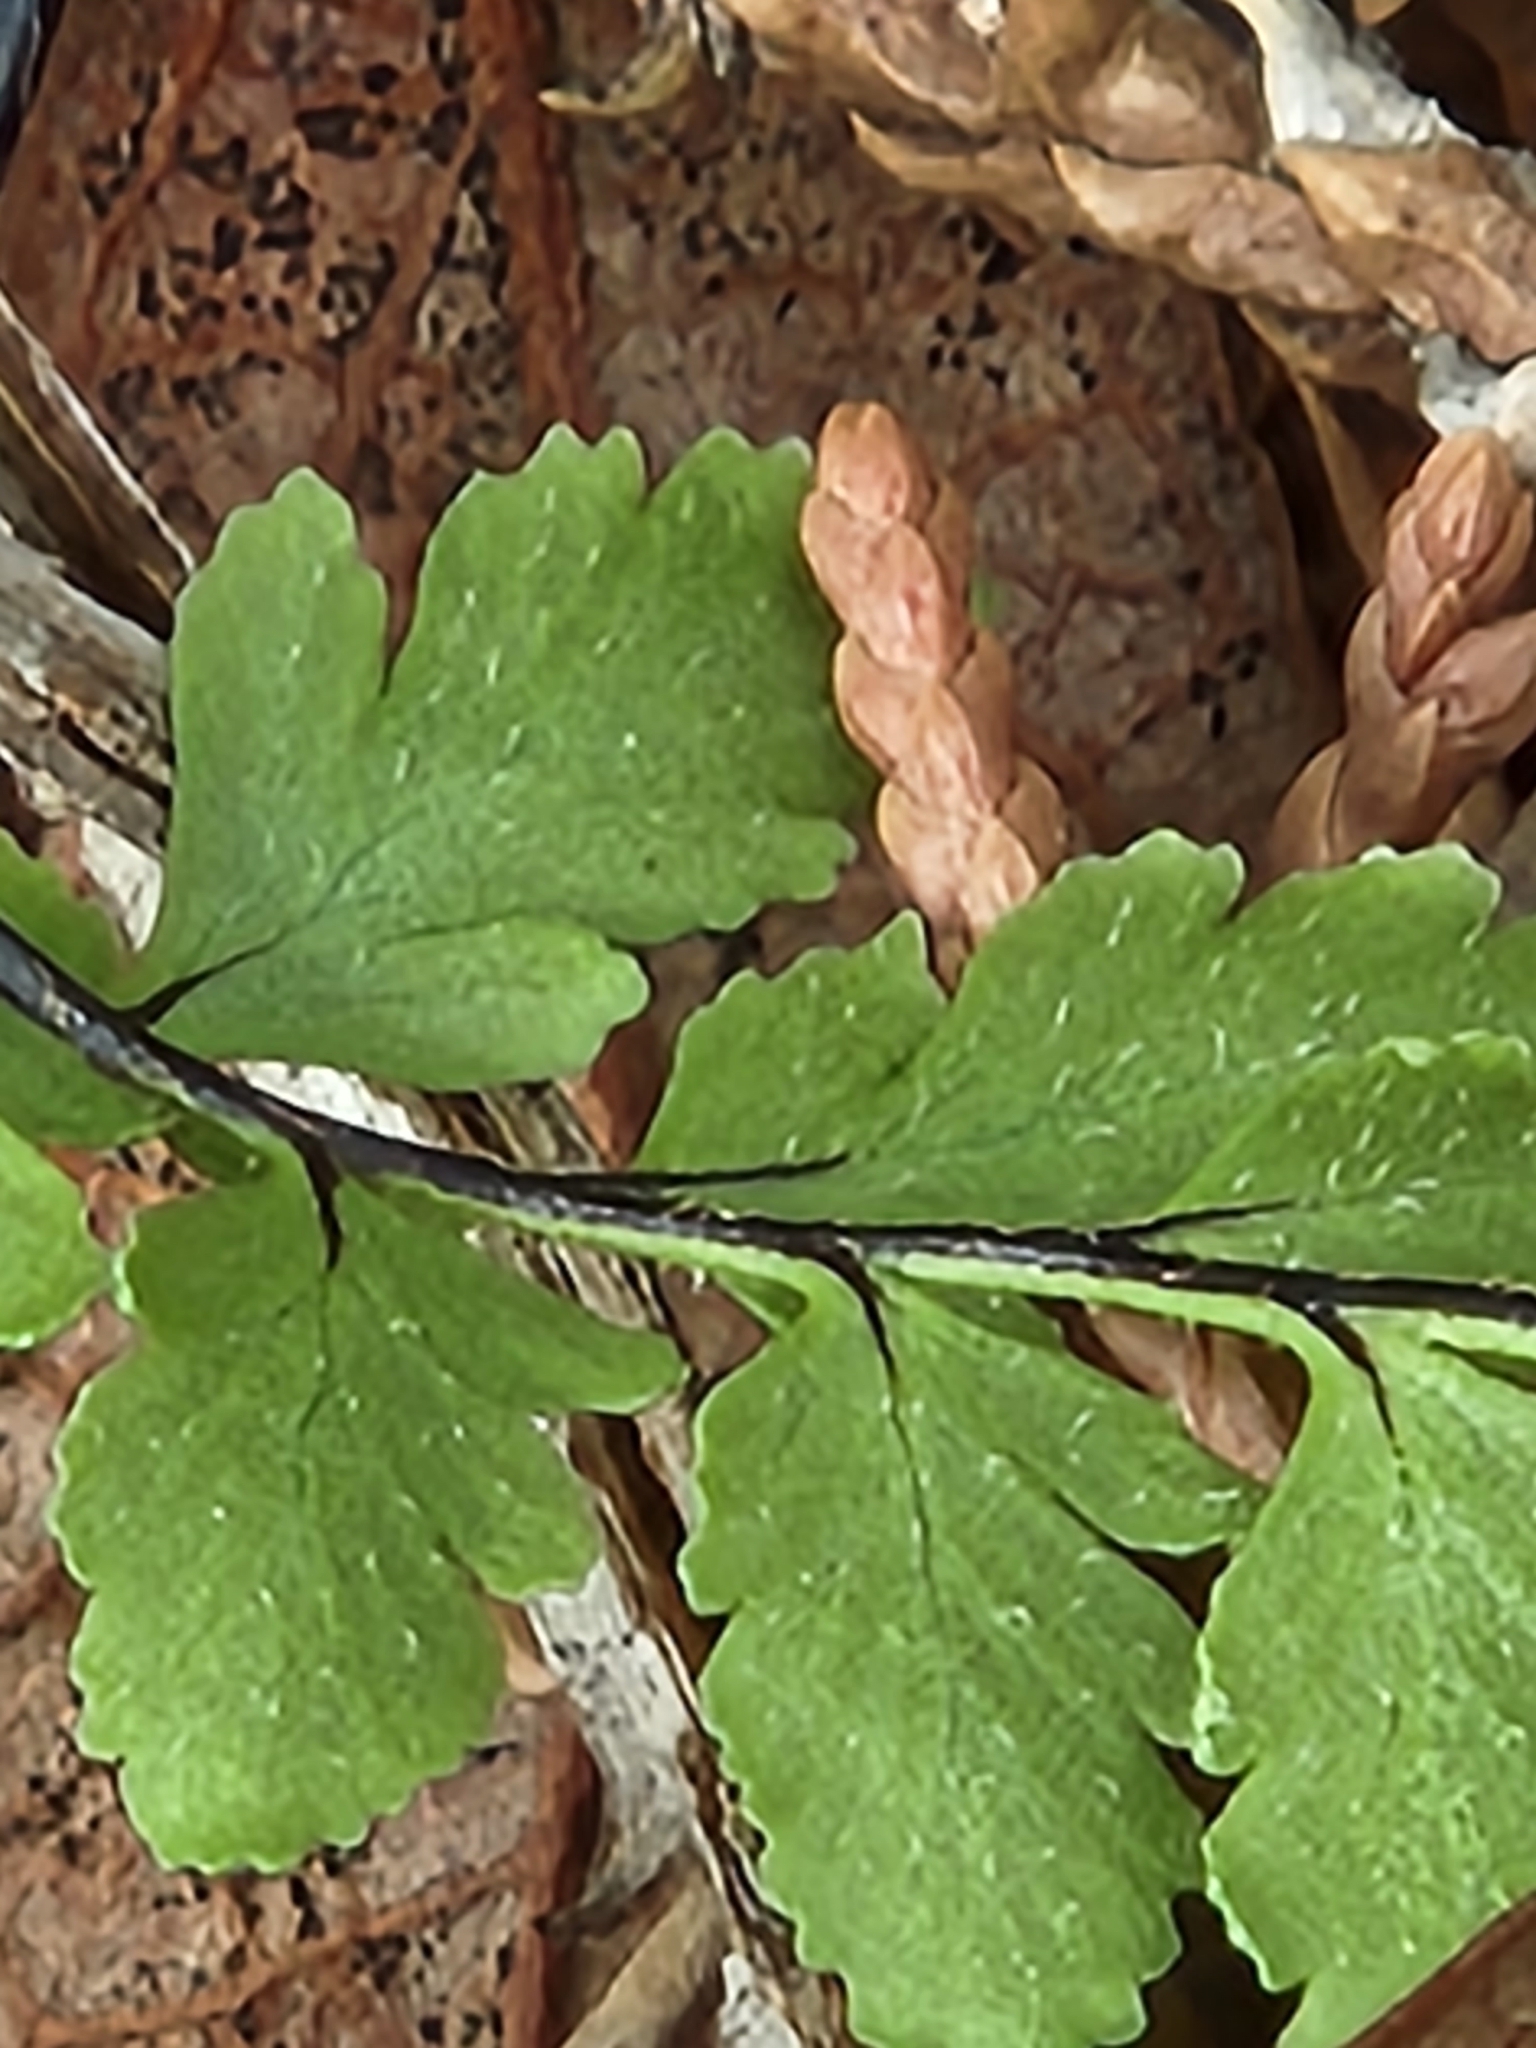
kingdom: Plantae
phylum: Tracheophyta
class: Polypodiopsida
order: Polypodiales
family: Pteridaceae
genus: Myriopteris
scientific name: Myriopteris alabamensis
